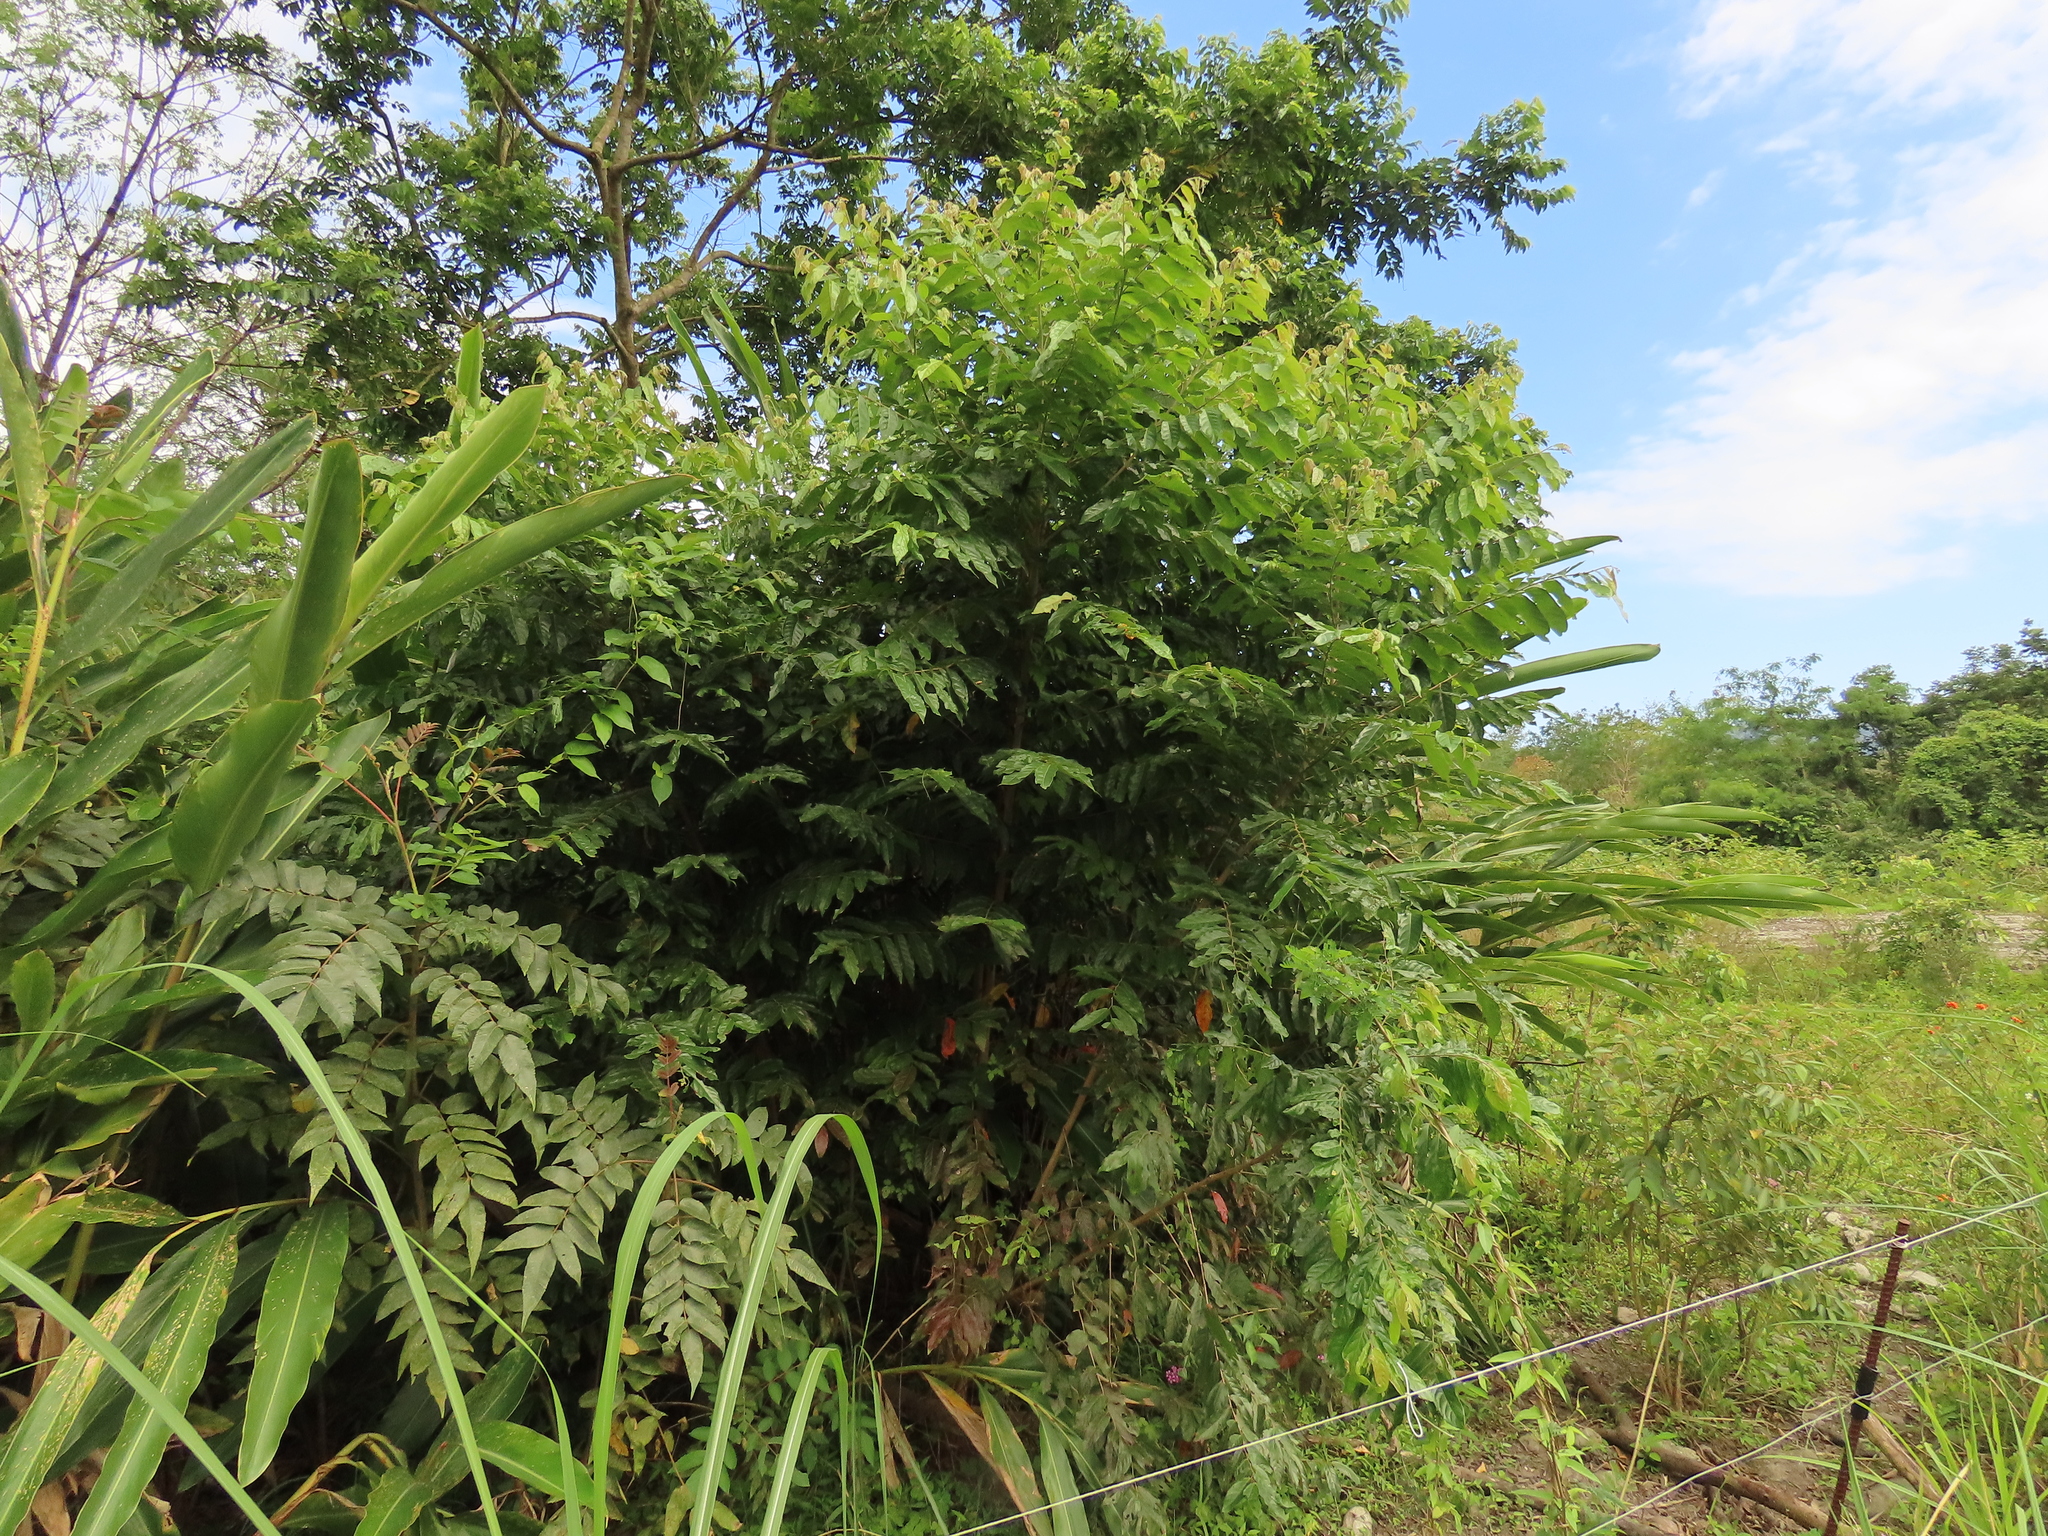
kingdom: Plantae
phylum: Tracheophyta
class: Magnoliopsida
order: Malpighiales
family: Phyllanthaceae
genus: Glochidion
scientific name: Glochidion philippicum
